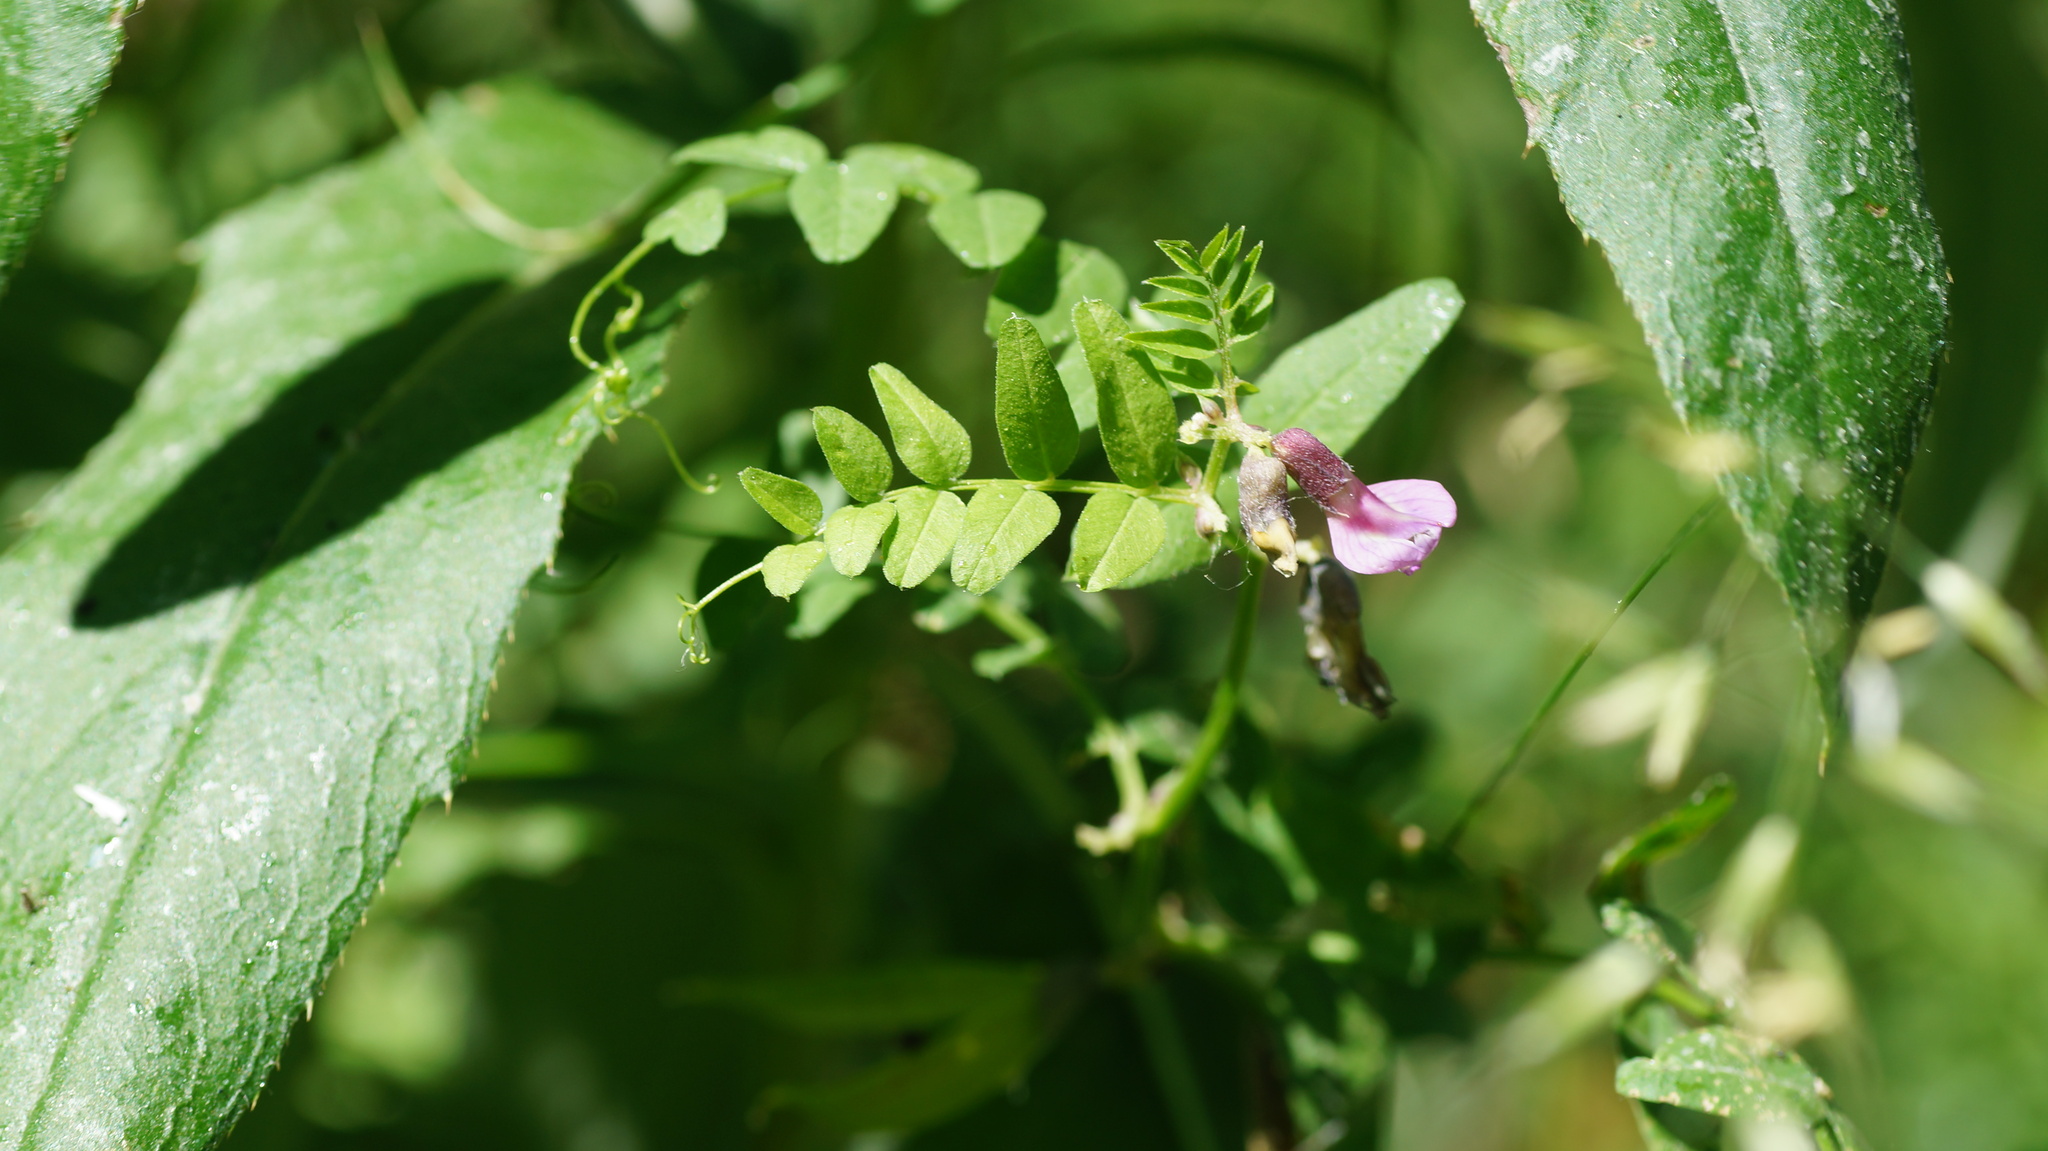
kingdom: Plantae
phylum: Tracheophyta
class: Magnoliopsida
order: Fabales
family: Fabaceae
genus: Vicia
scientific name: Vicia sepium
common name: Bush vetch
